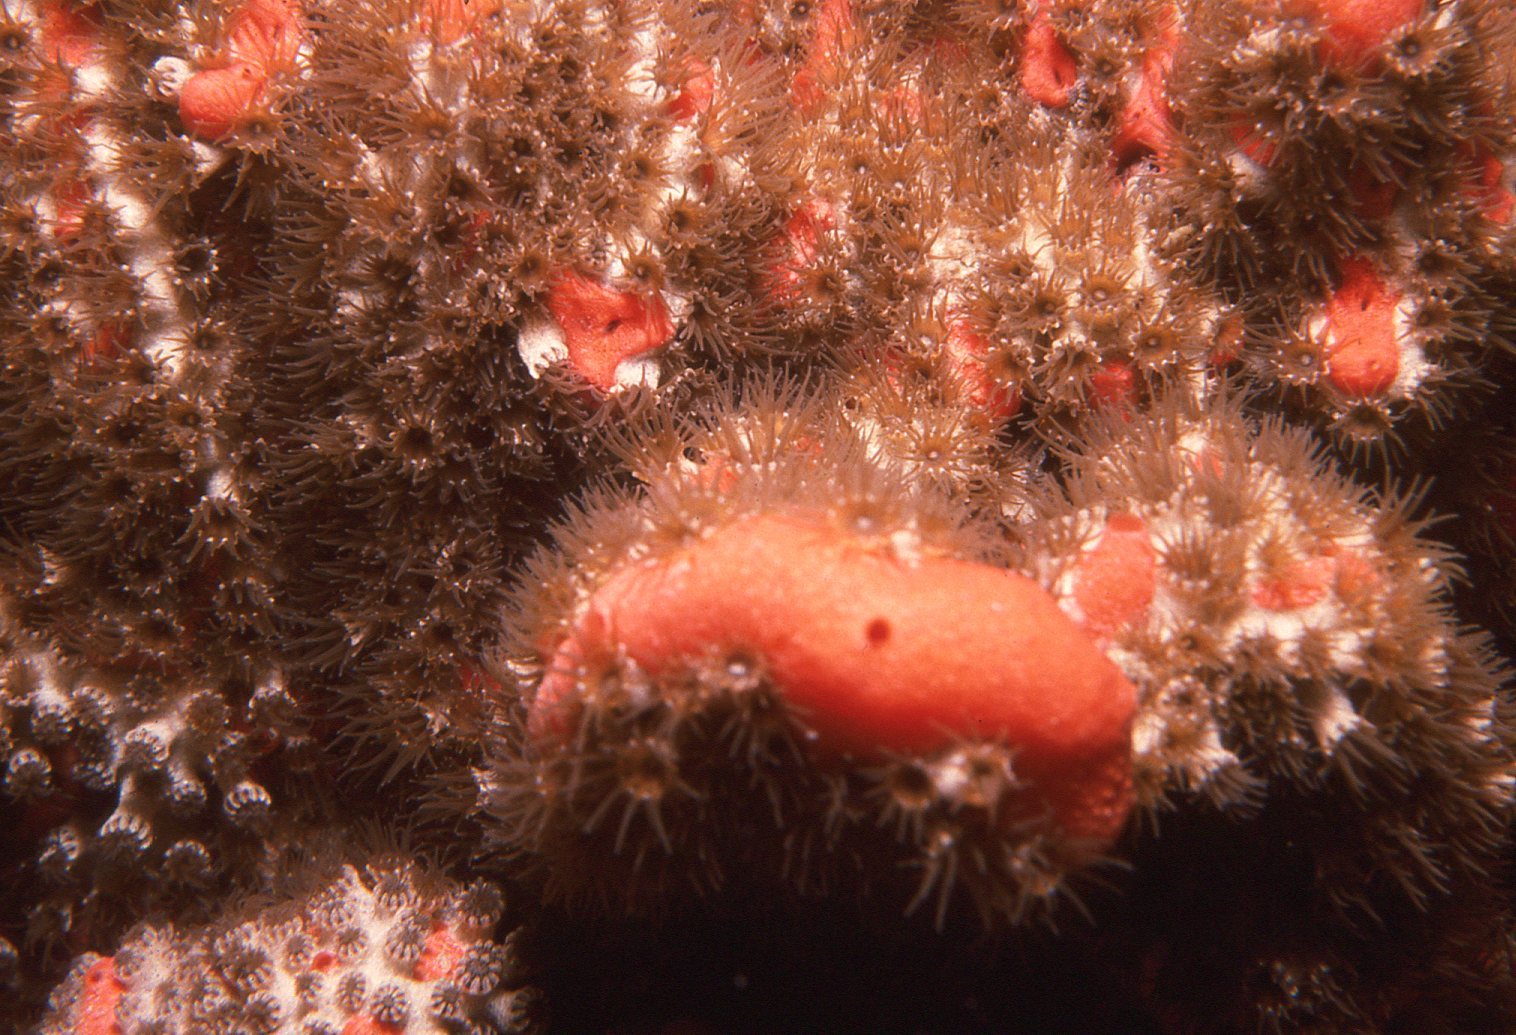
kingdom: Animalia
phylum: Cnidaria
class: Anthozoa
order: Zoantharia
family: Epizoanthidae
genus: Epizoanthus
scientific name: Epizoanthus sabulosus
